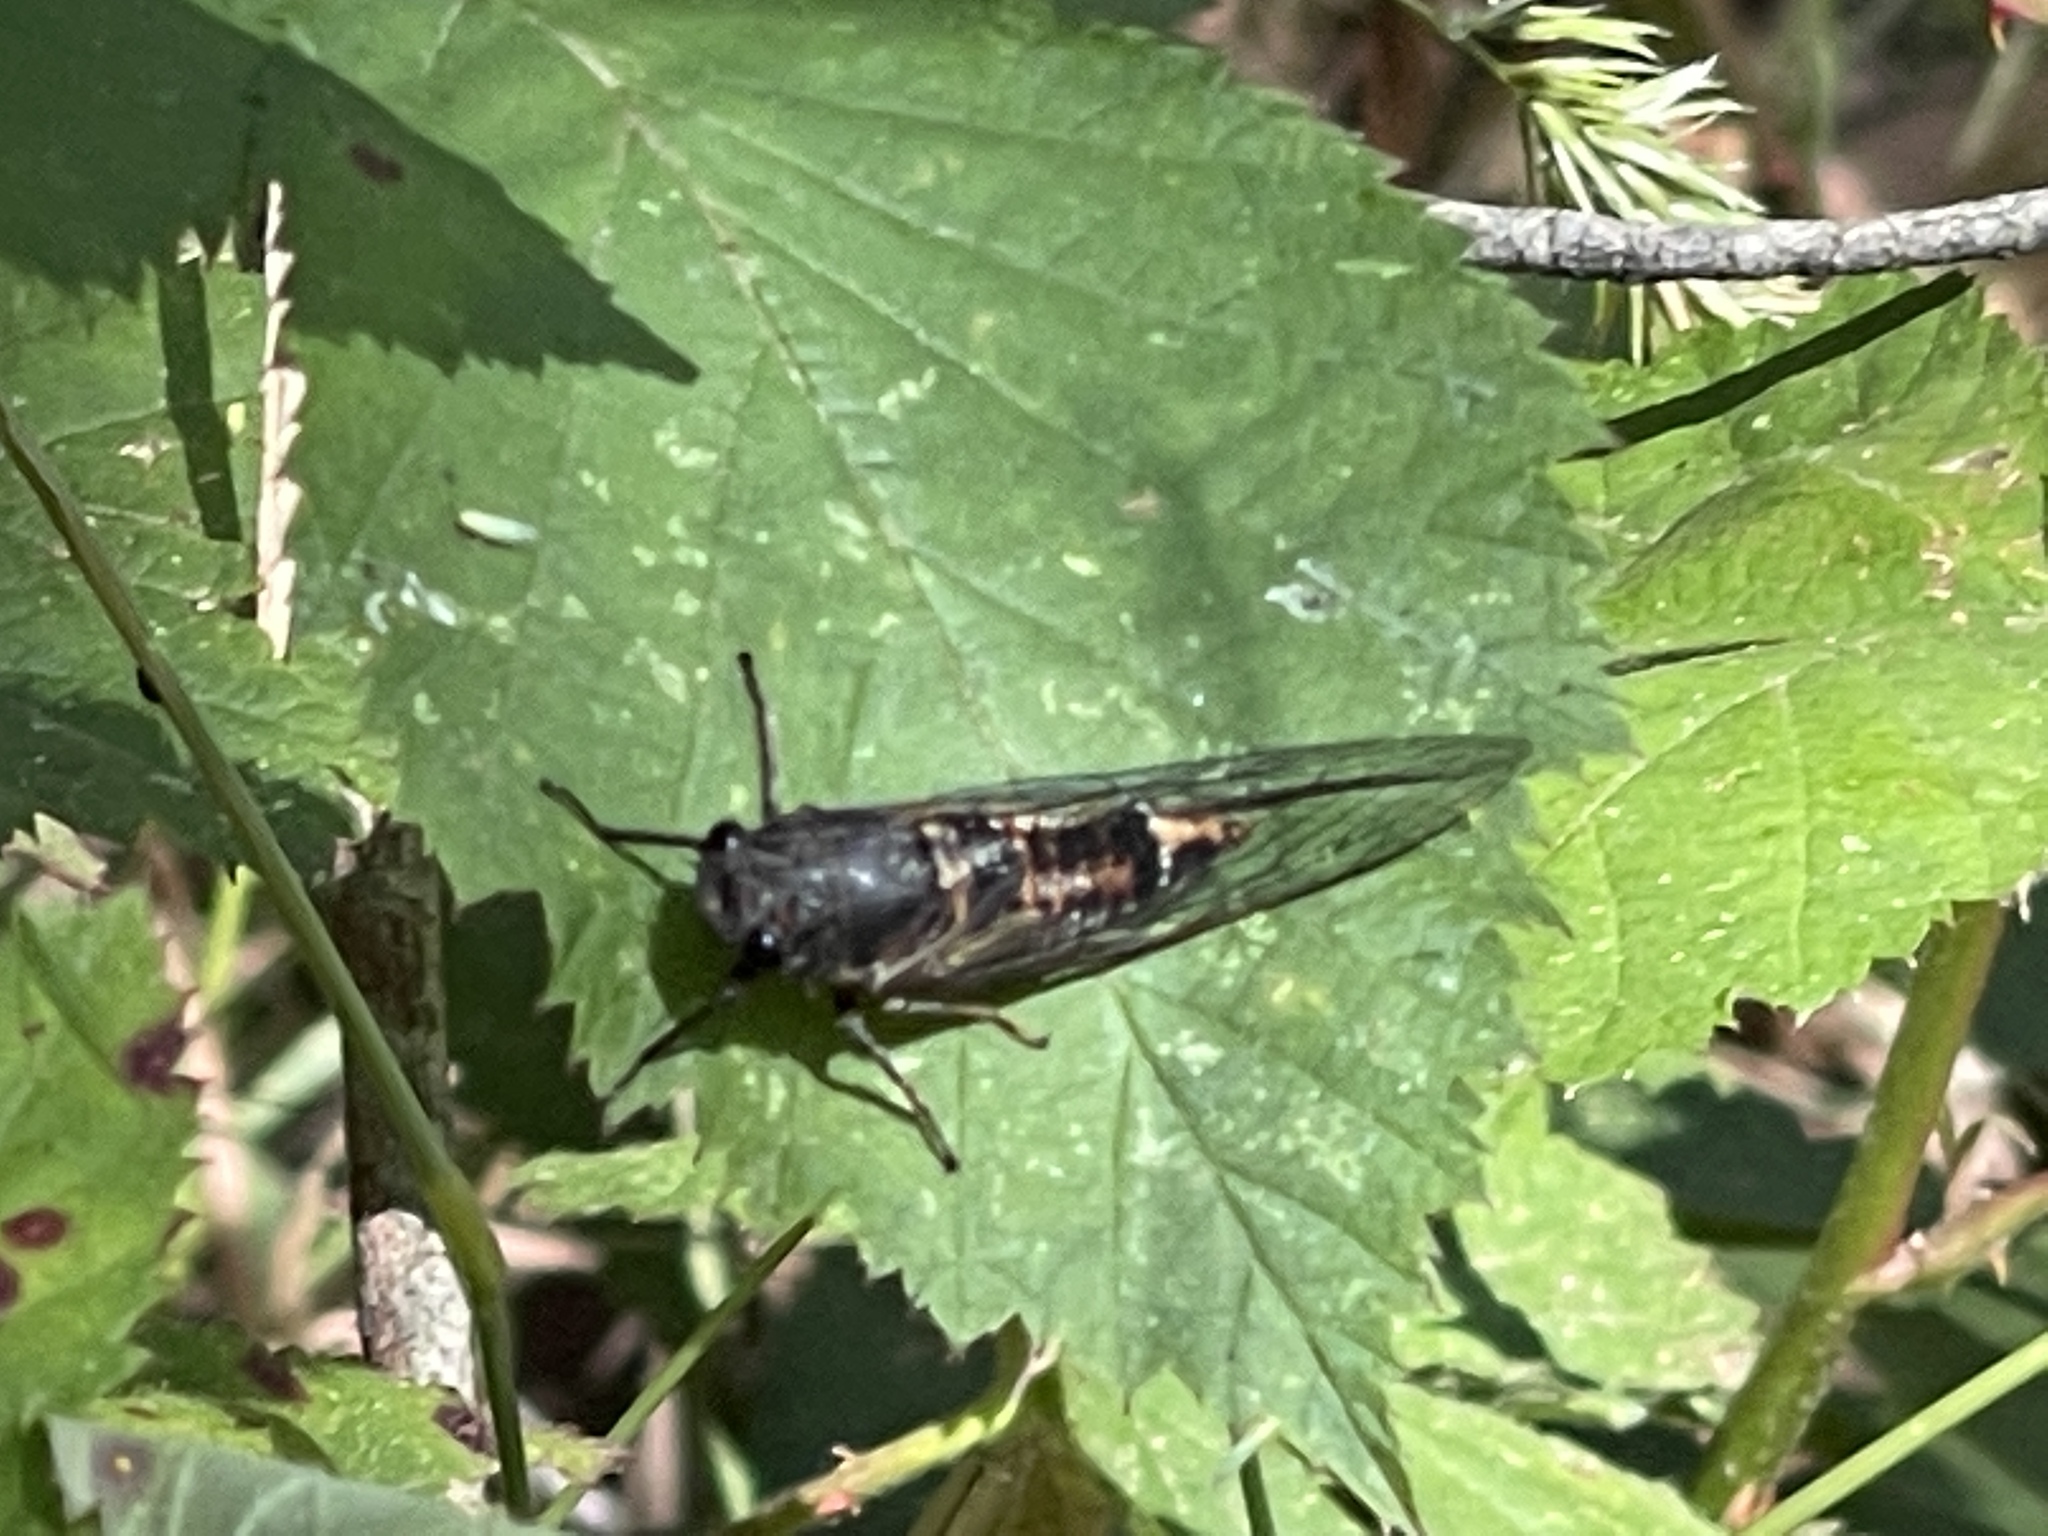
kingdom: Animalia
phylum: Arthropoda
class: Insecta
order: Hemiptera
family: Cicadidae
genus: Yoyetta
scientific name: Yoyetta robertsonae
